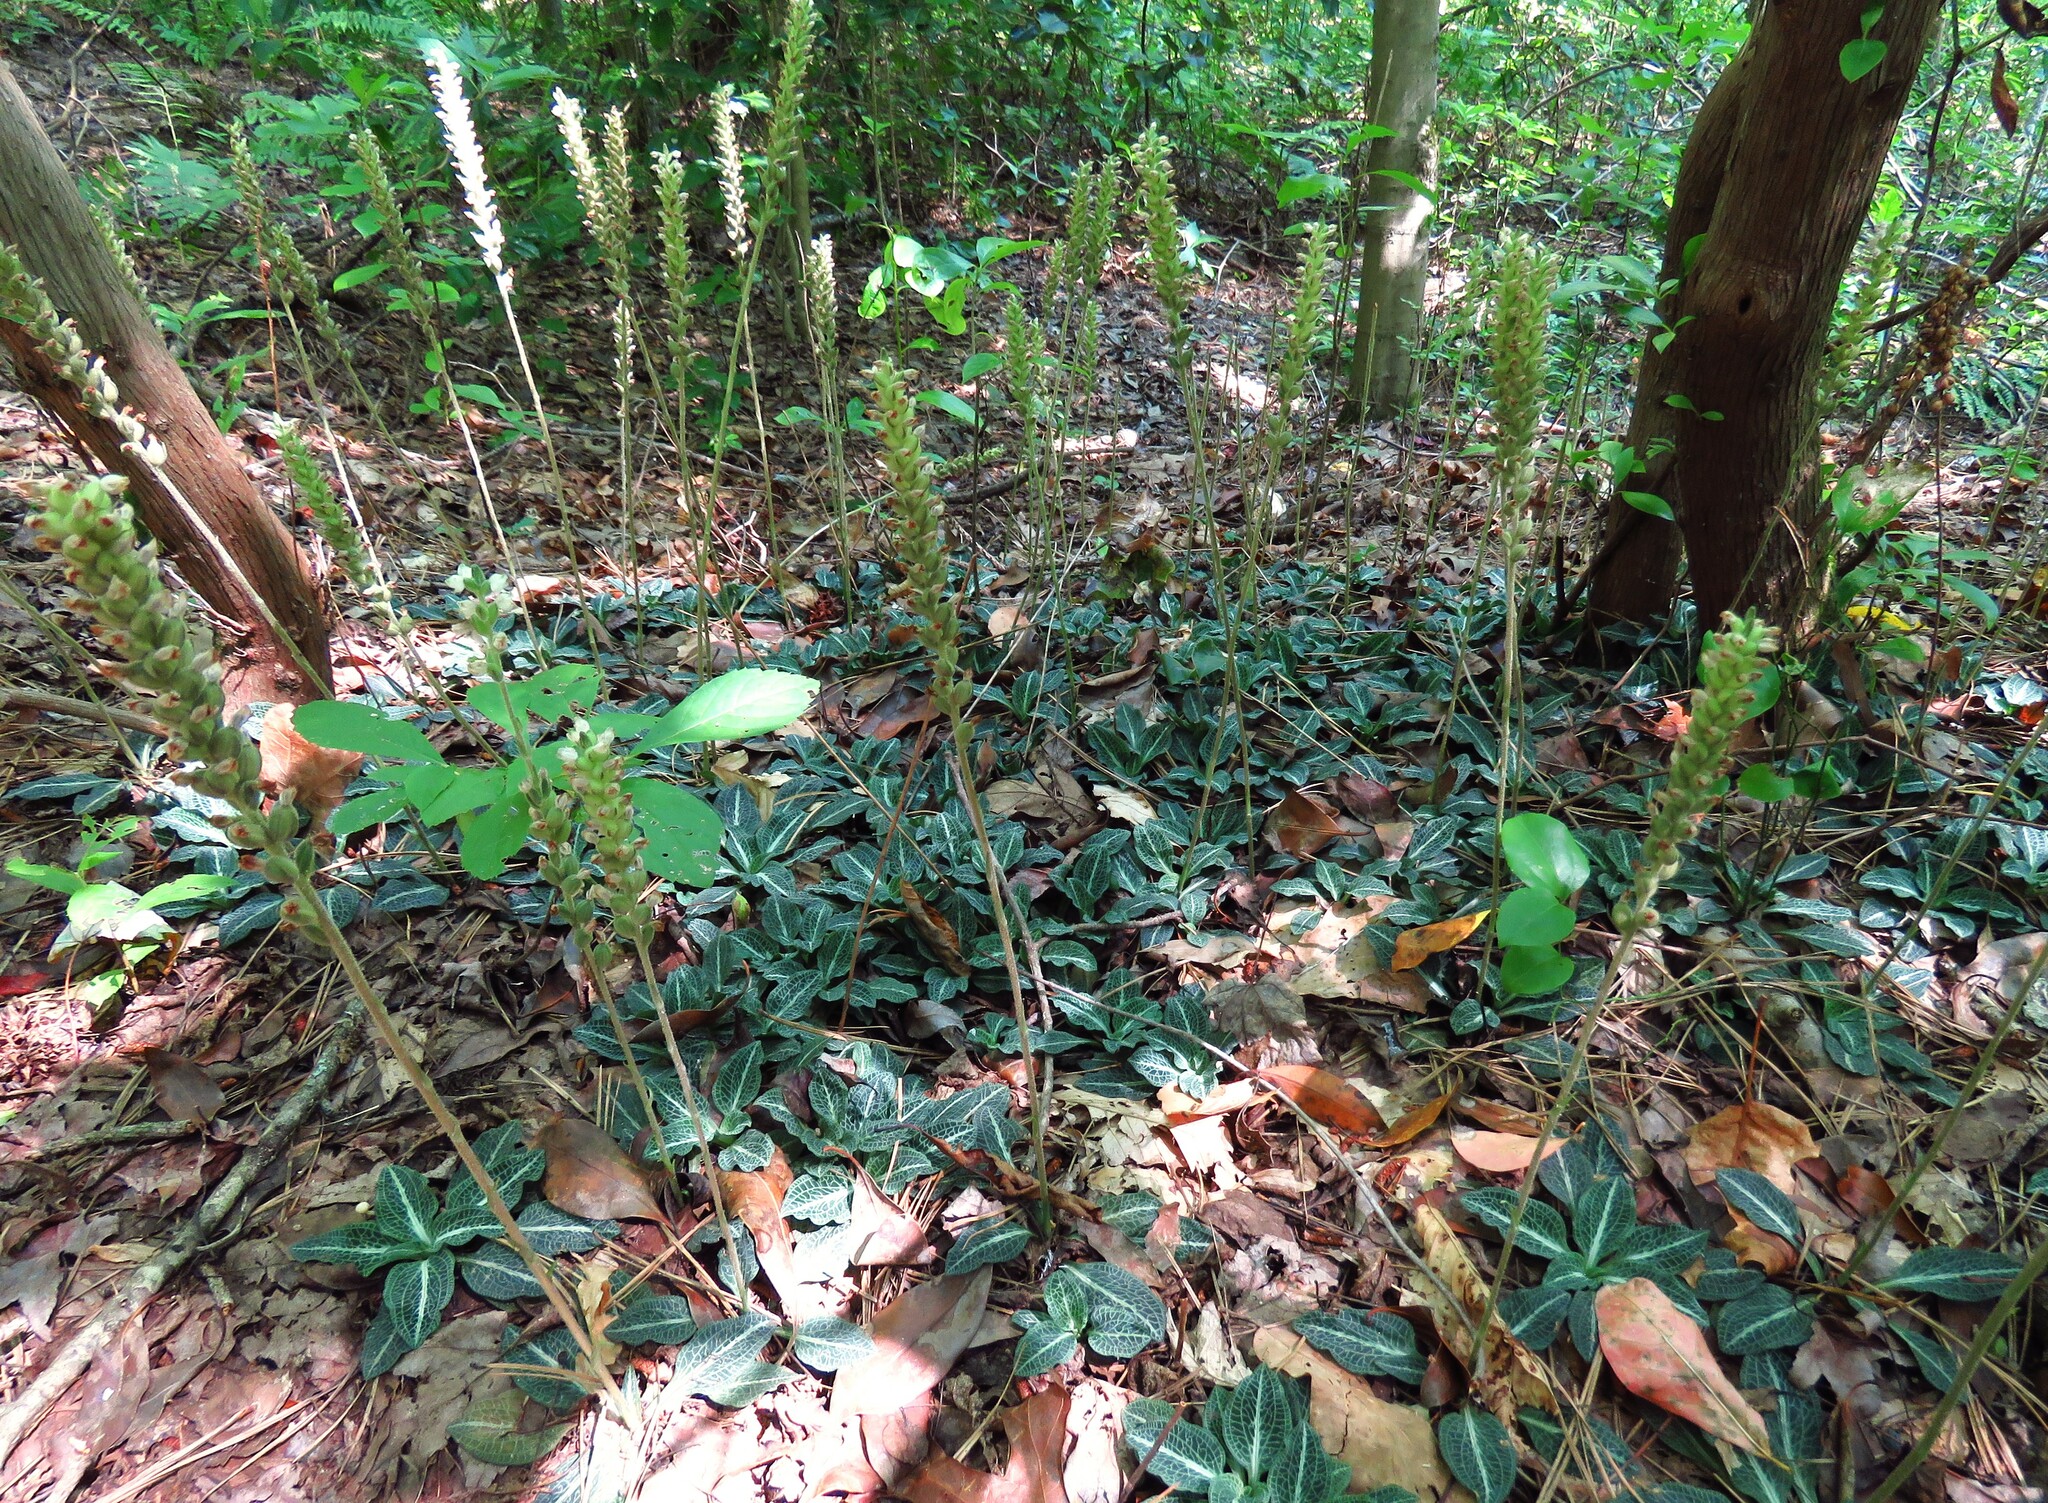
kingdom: Plantae
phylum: Tracheophyta
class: Liliopsida
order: Asparagales
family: Orchidaceae
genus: Goodyera
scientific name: Goodyera pubescens
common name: Downy rattlesnake-plantain
